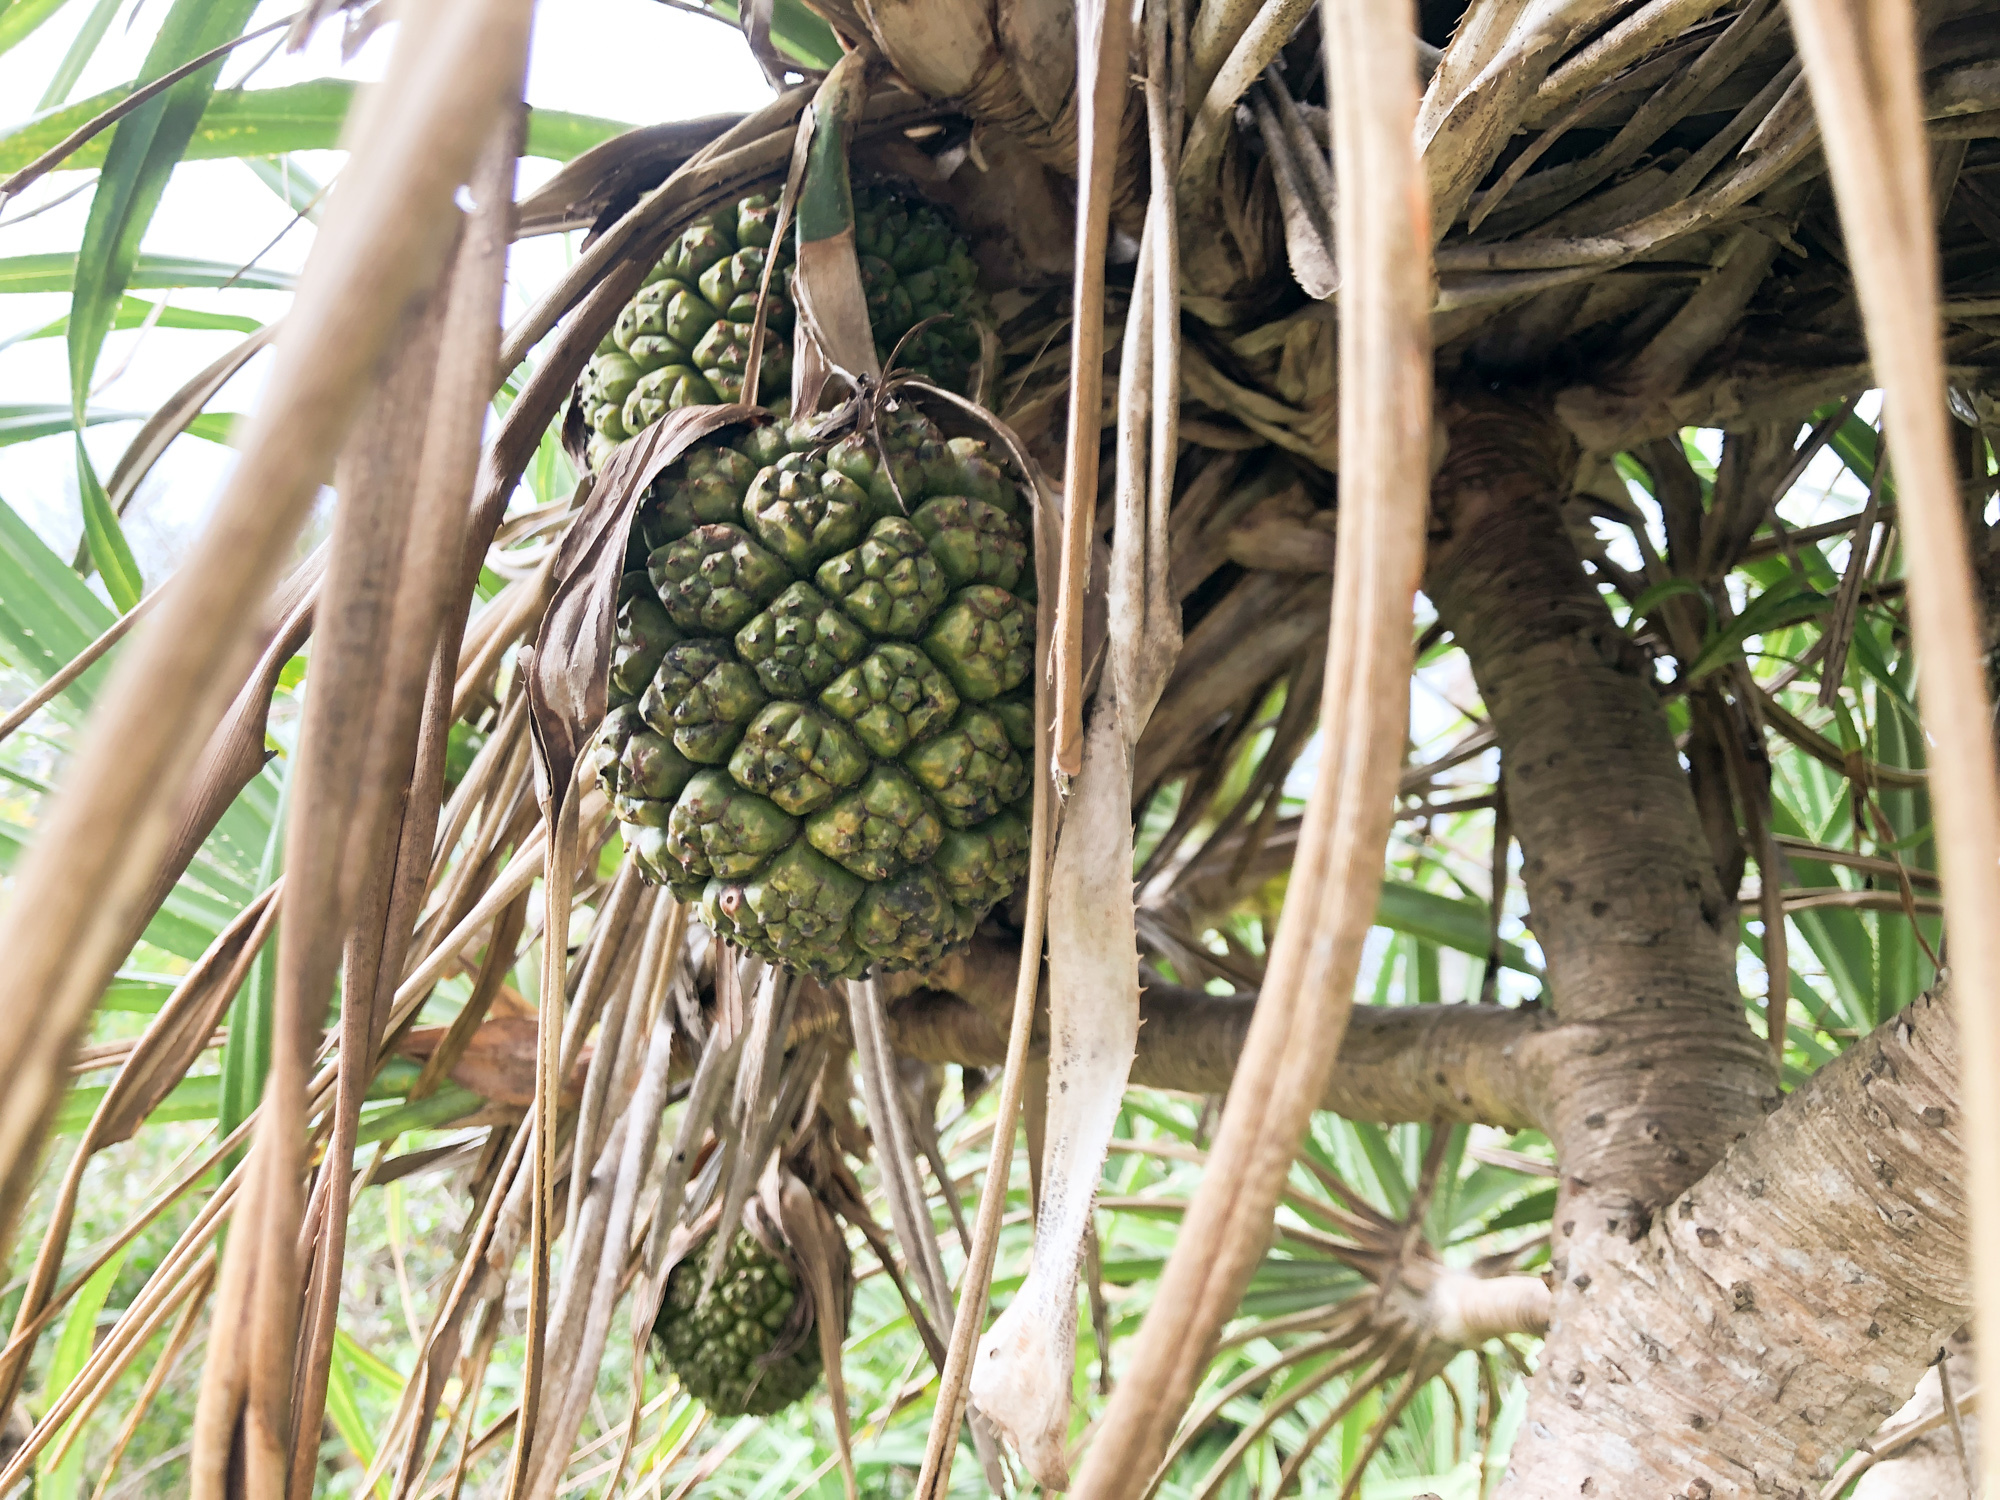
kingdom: Plantae
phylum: Tracheophyta
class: Liliopsida
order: Pandanales
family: Pandanaceae
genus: Pandanus
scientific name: Pandanus odorifer
